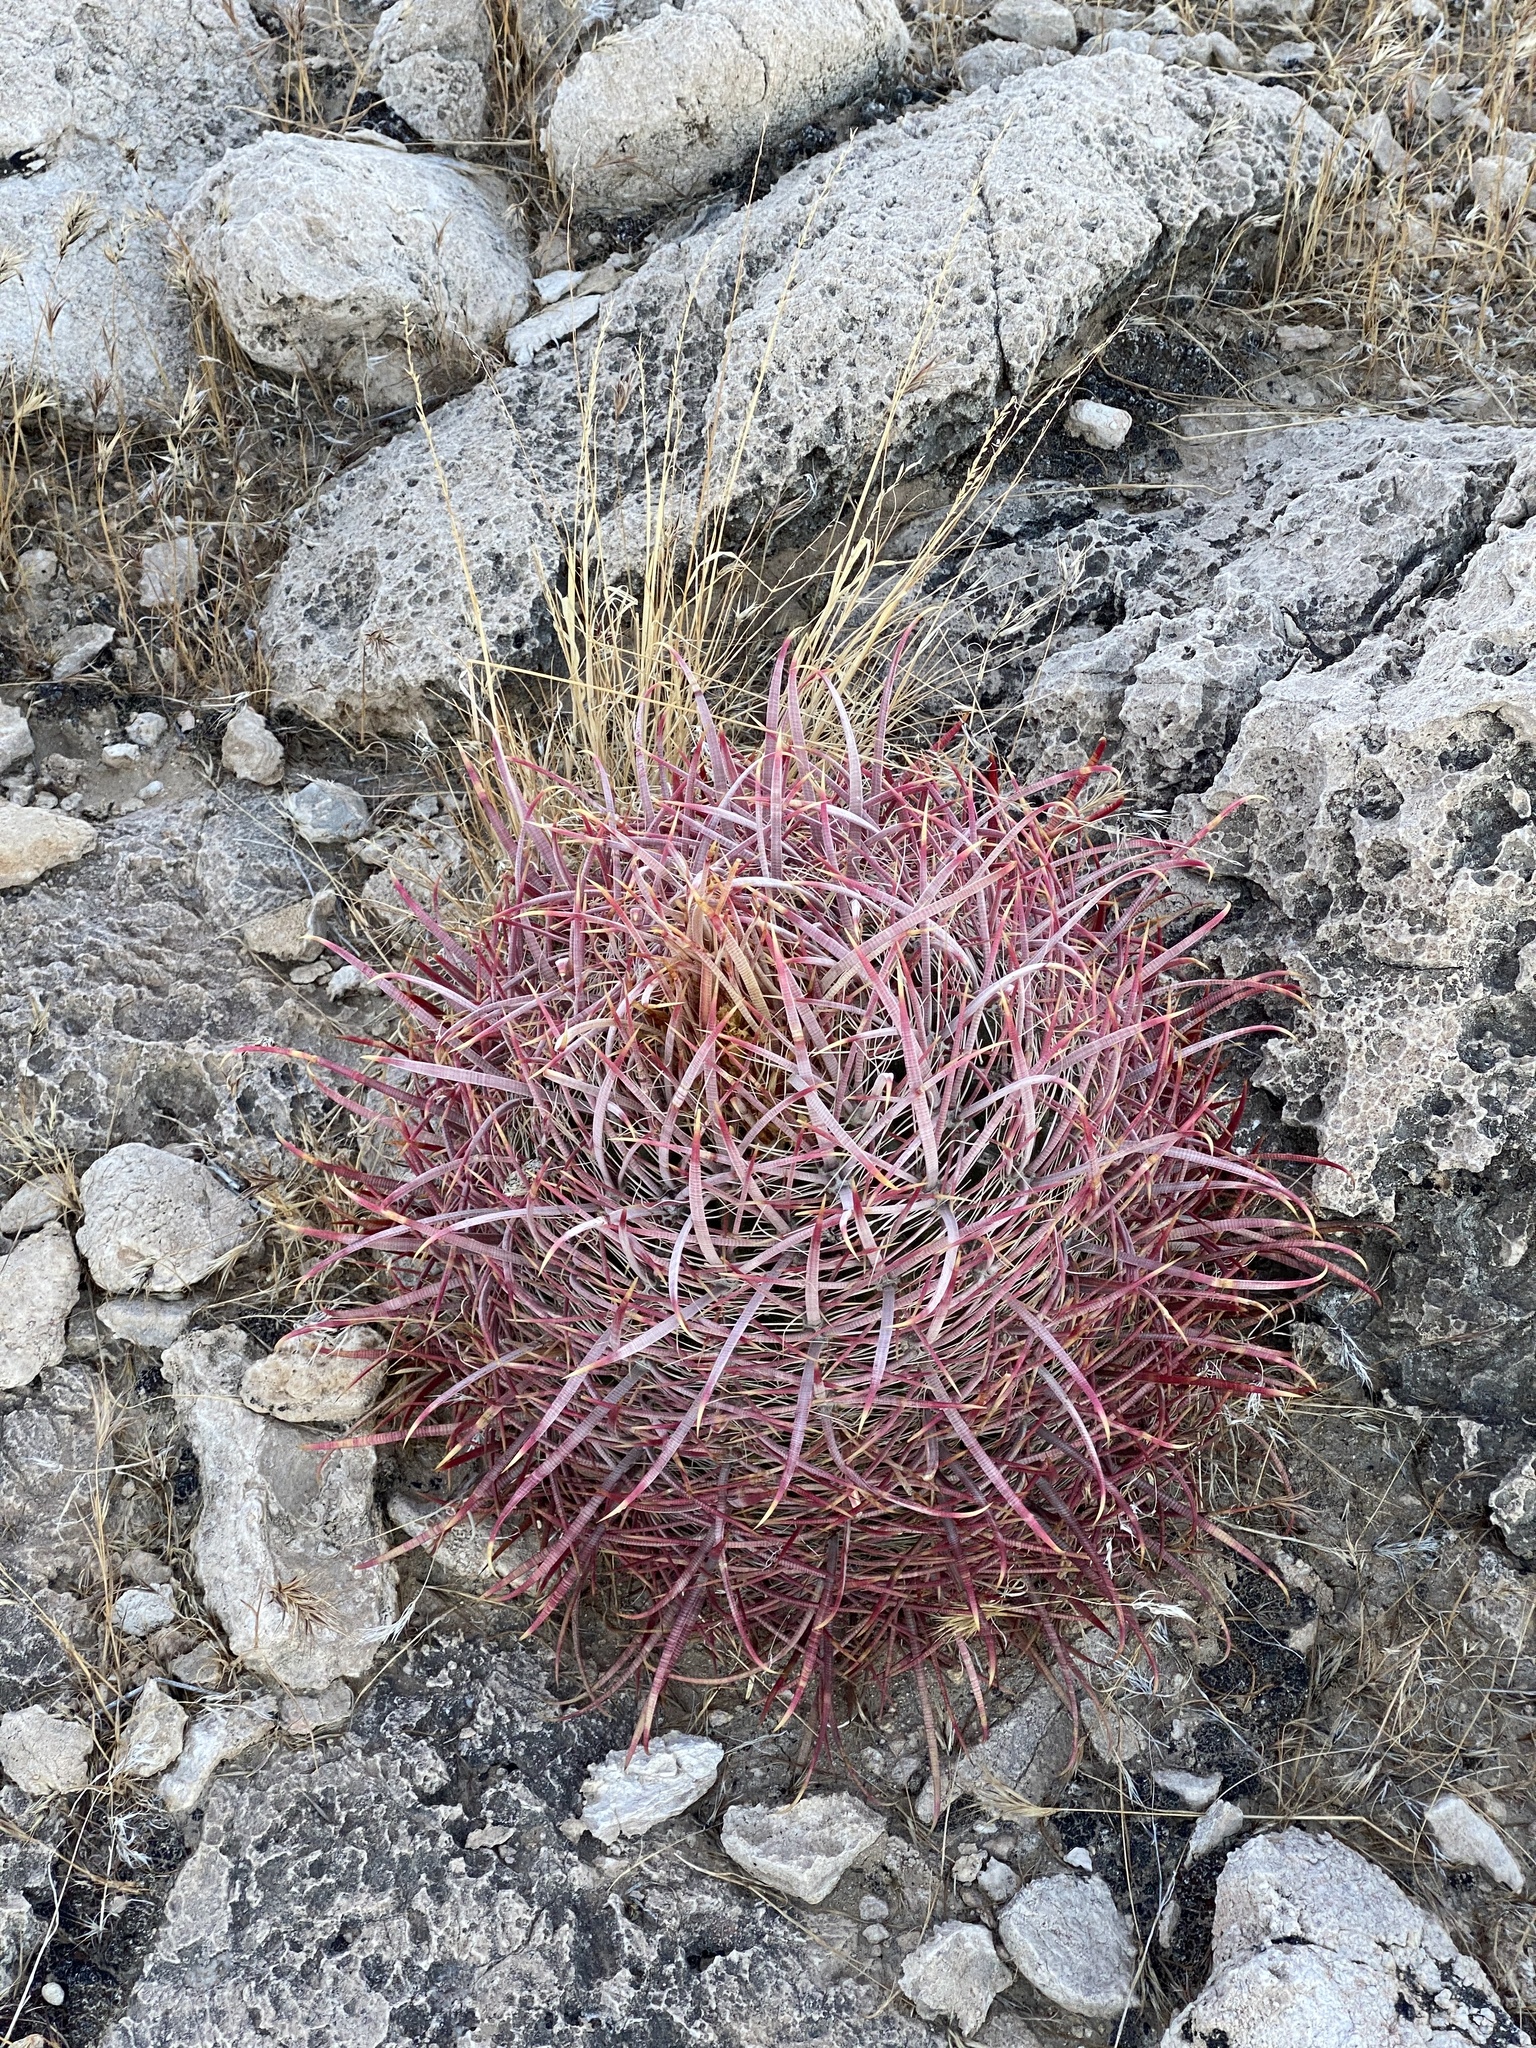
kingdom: Plantae
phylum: Tracheophyta
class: Magnoliopsida
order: Caryophyllales
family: Cactaceae
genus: Ferocactus
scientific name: Ferocactus cylindraceus
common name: California barrel cactus
